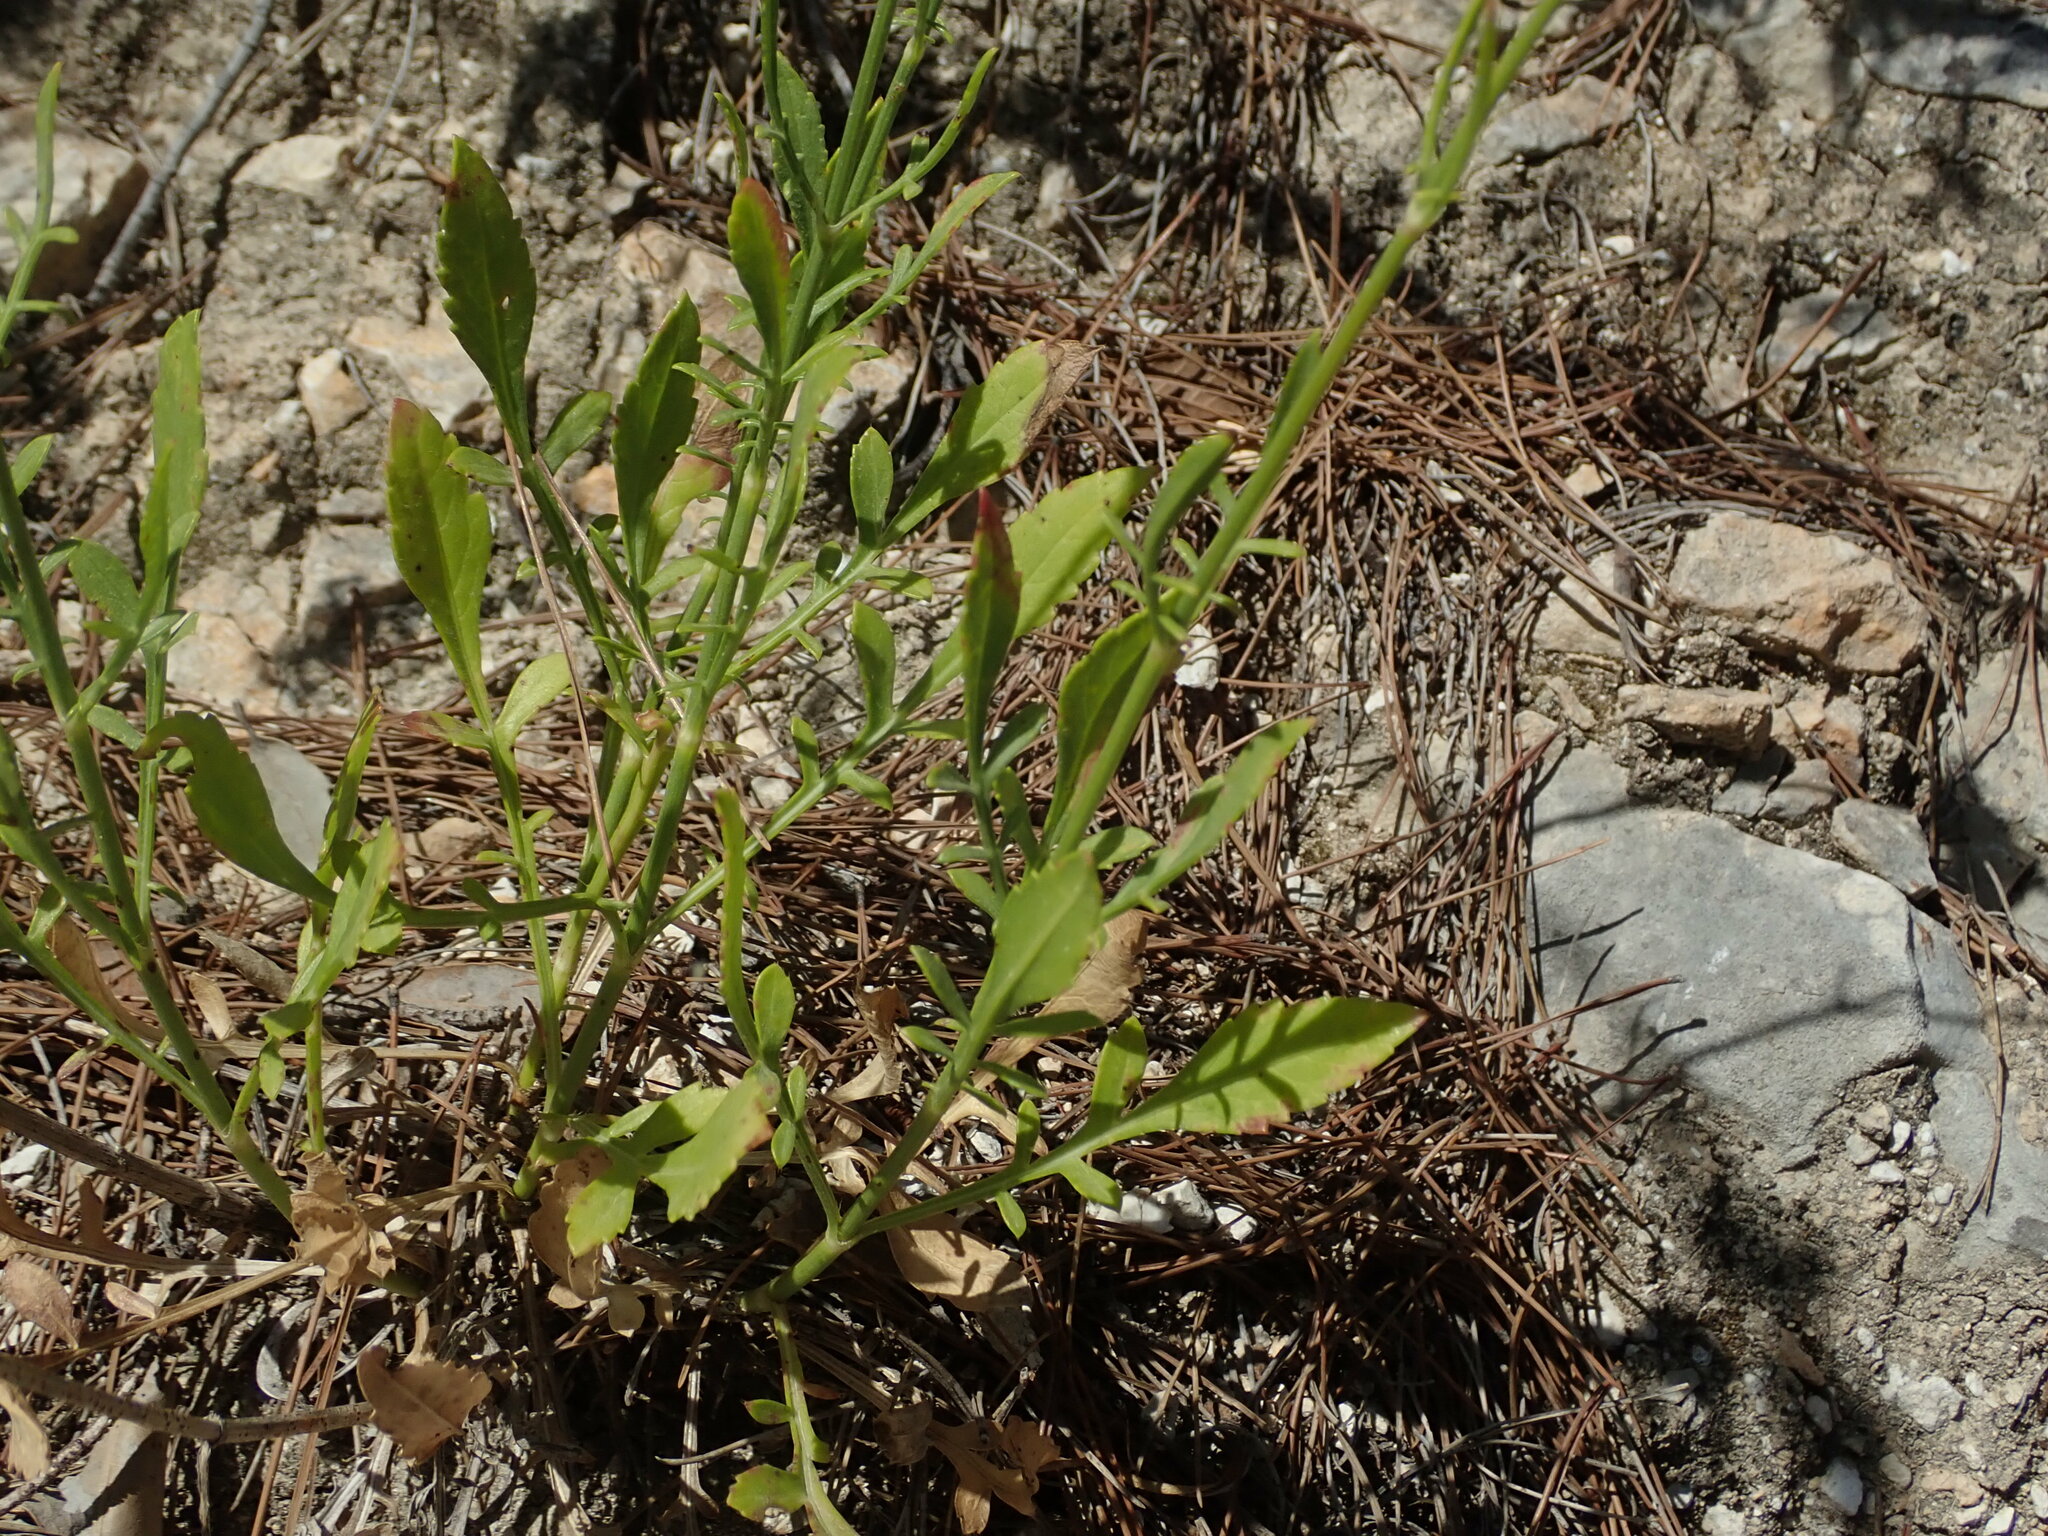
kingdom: Plantae
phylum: Tracheophyta
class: Magnoliopsida
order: Dipsacales
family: Caprifoliaceae
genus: Cephalaria
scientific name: Cephalaria leucantha
